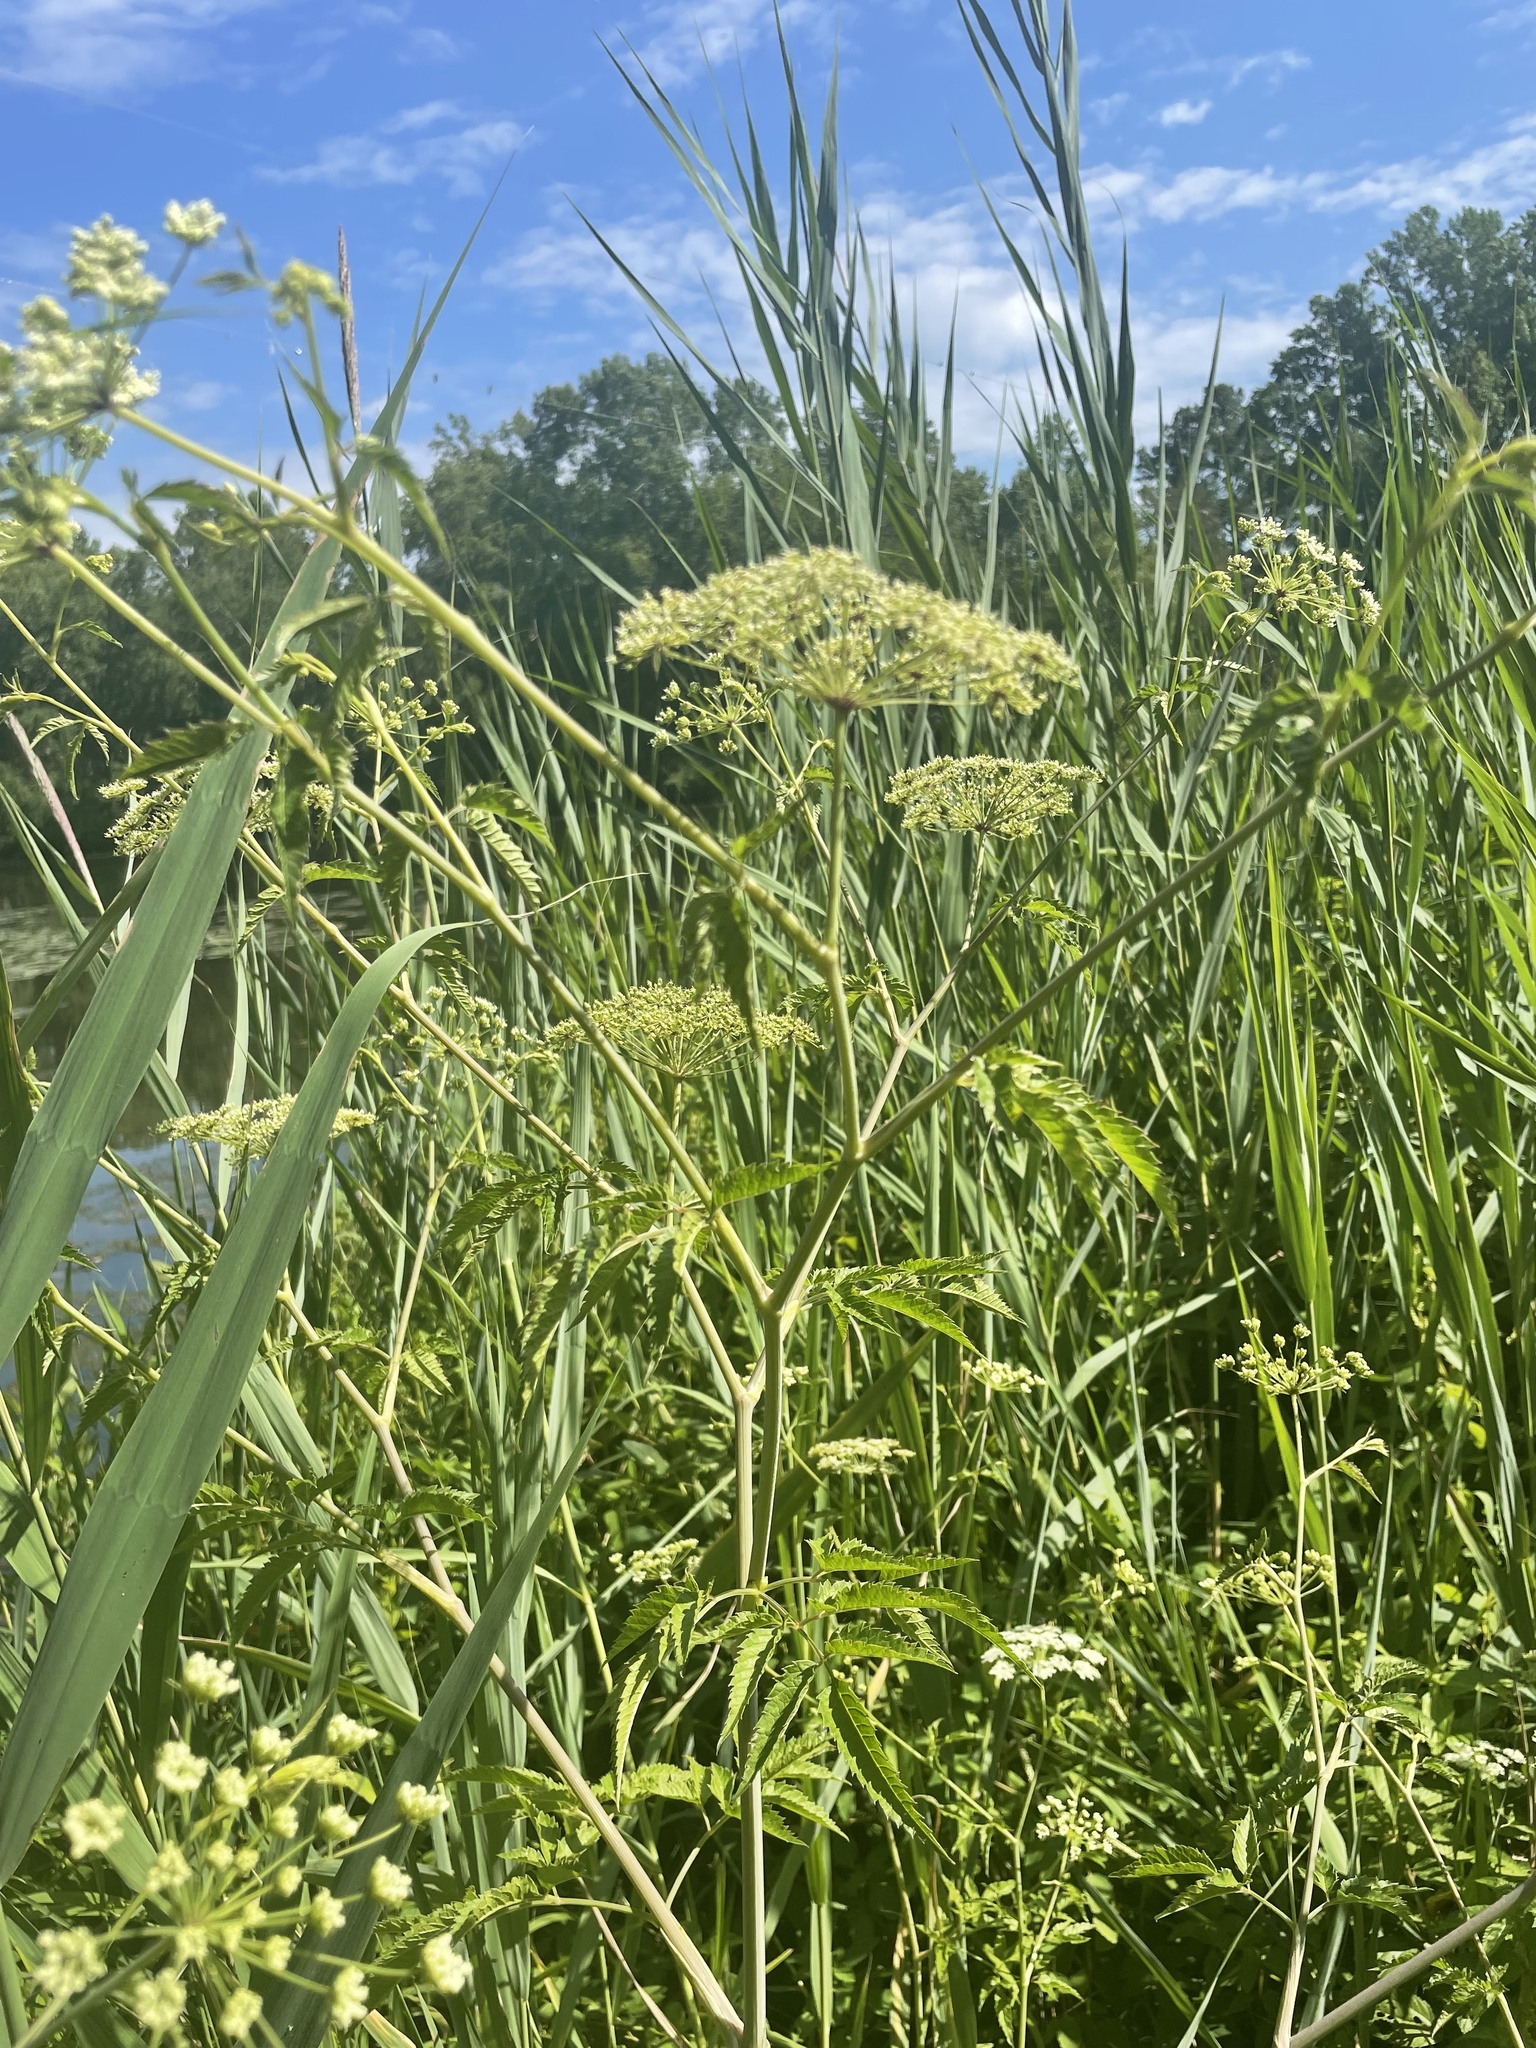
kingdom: Plantae
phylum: Tracheophyta
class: Magnoliopsida
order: Apiales
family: Apiaceae
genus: Cicuta
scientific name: Cicuta maculata
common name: Spotted cowbane
